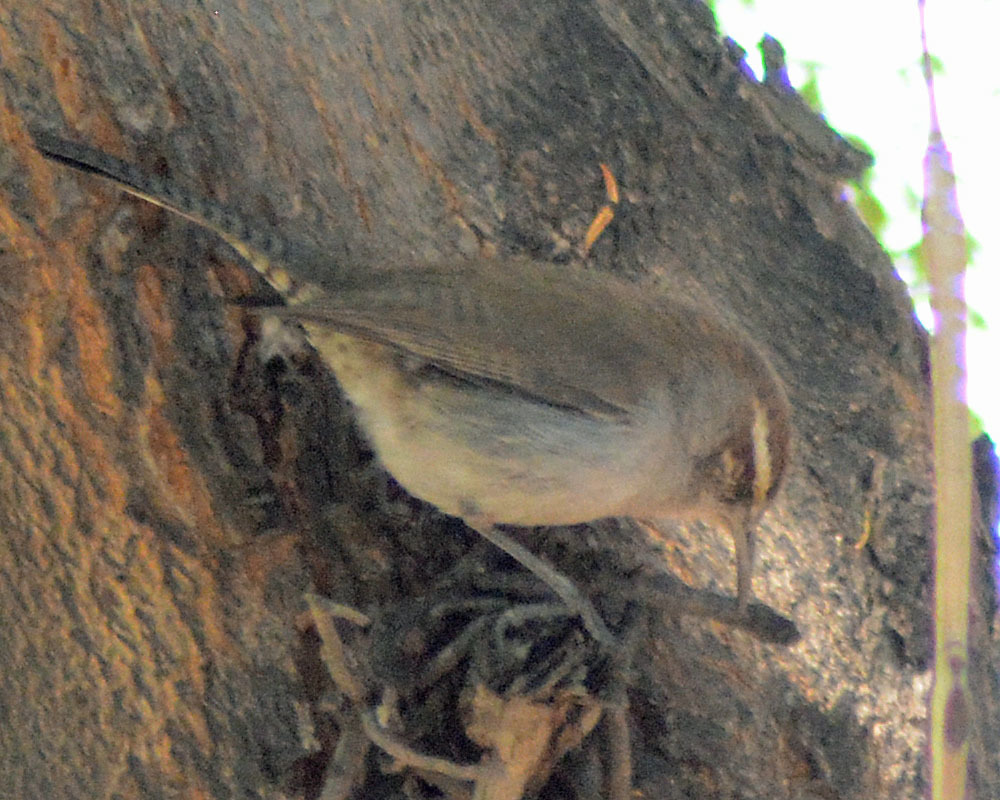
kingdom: Animalia
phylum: Chordata
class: Aves
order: Passeriformes
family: Troglodytidae
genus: Thryomanes
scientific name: Thryomanes bewickii
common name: Bewick's wren
